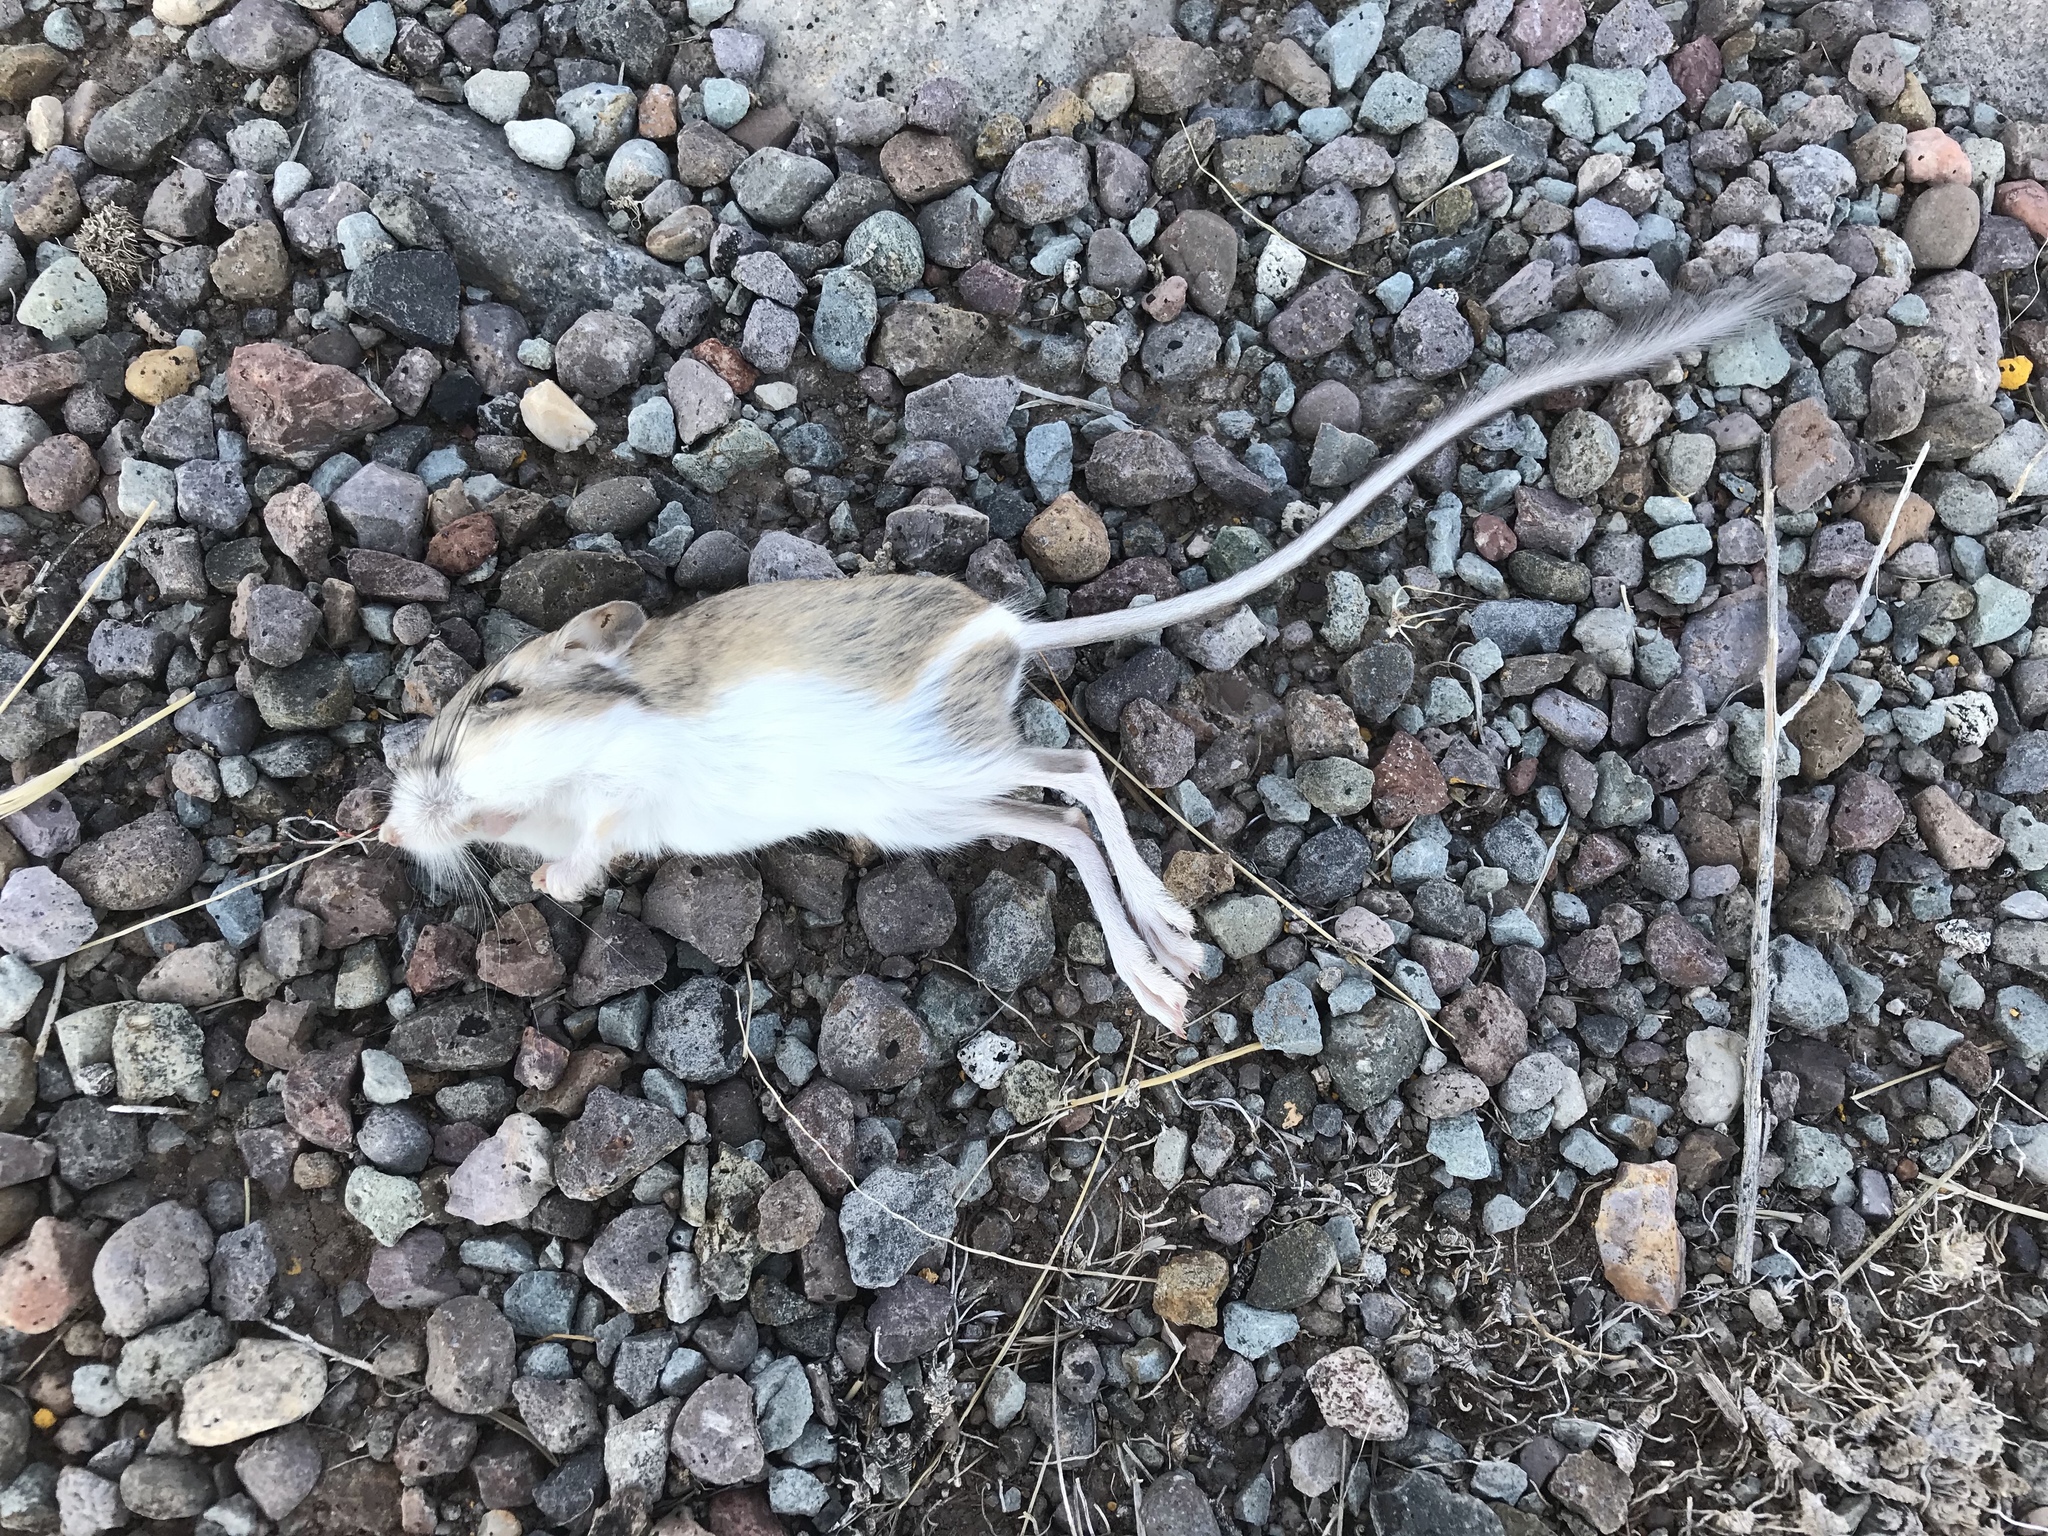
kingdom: Animalia
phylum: Chordata
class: Mammalia
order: Rodentia
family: Heteromyidae
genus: Dipodomys
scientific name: Dipodomys merriami
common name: Merriam's kangaroo rat
